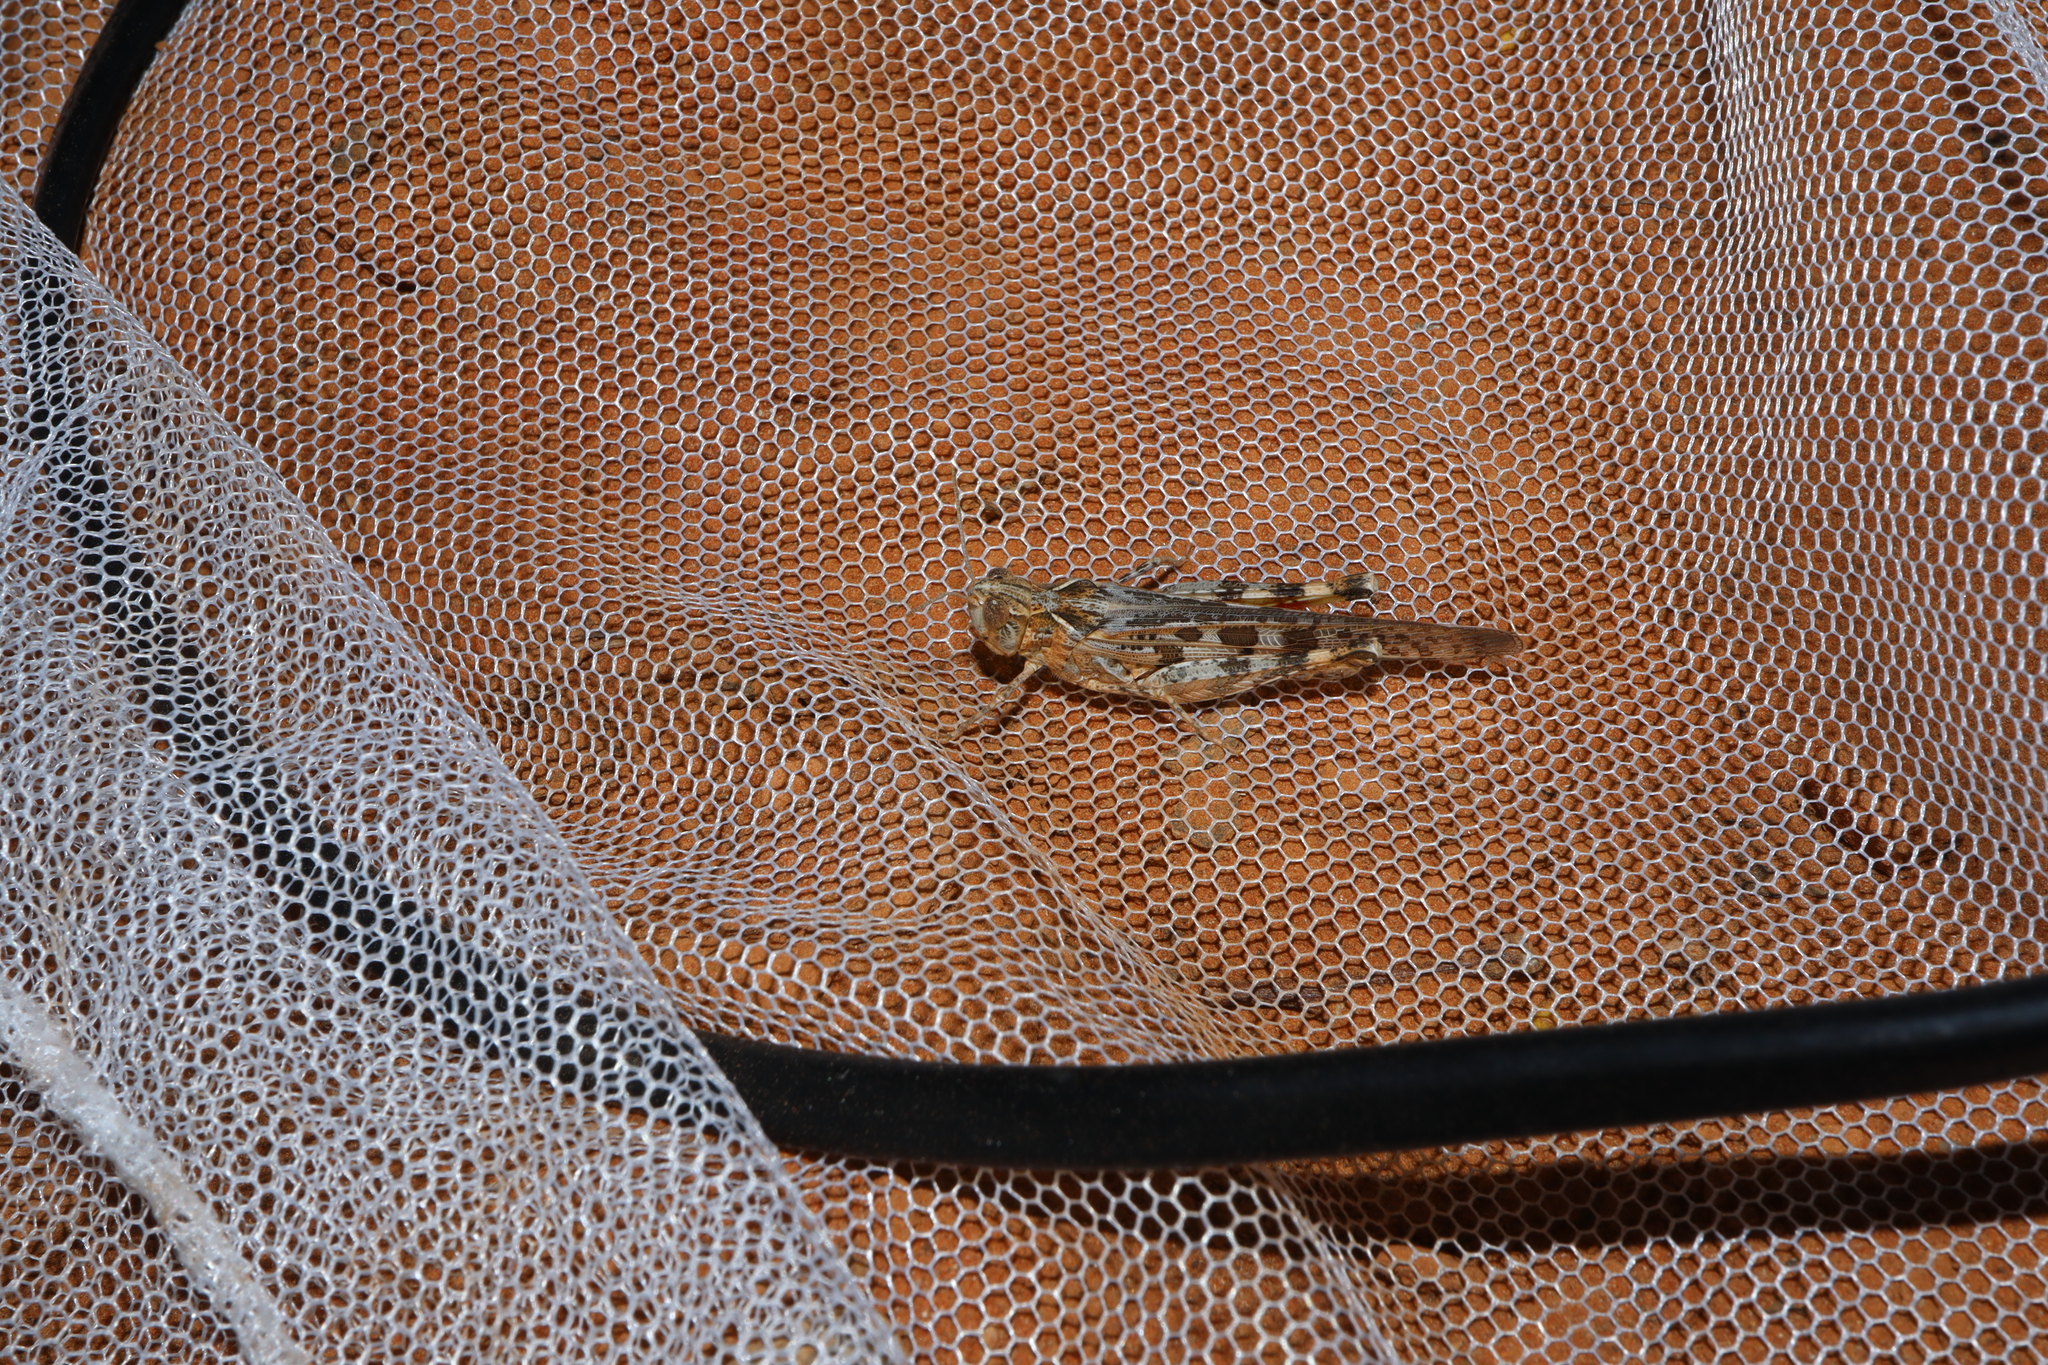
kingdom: Animalia
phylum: Arthropoda
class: Insecta
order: Orthoptera
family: Acrididae
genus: Chortoicetes
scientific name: Chortoicetes terminifera
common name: Australian plague locust
